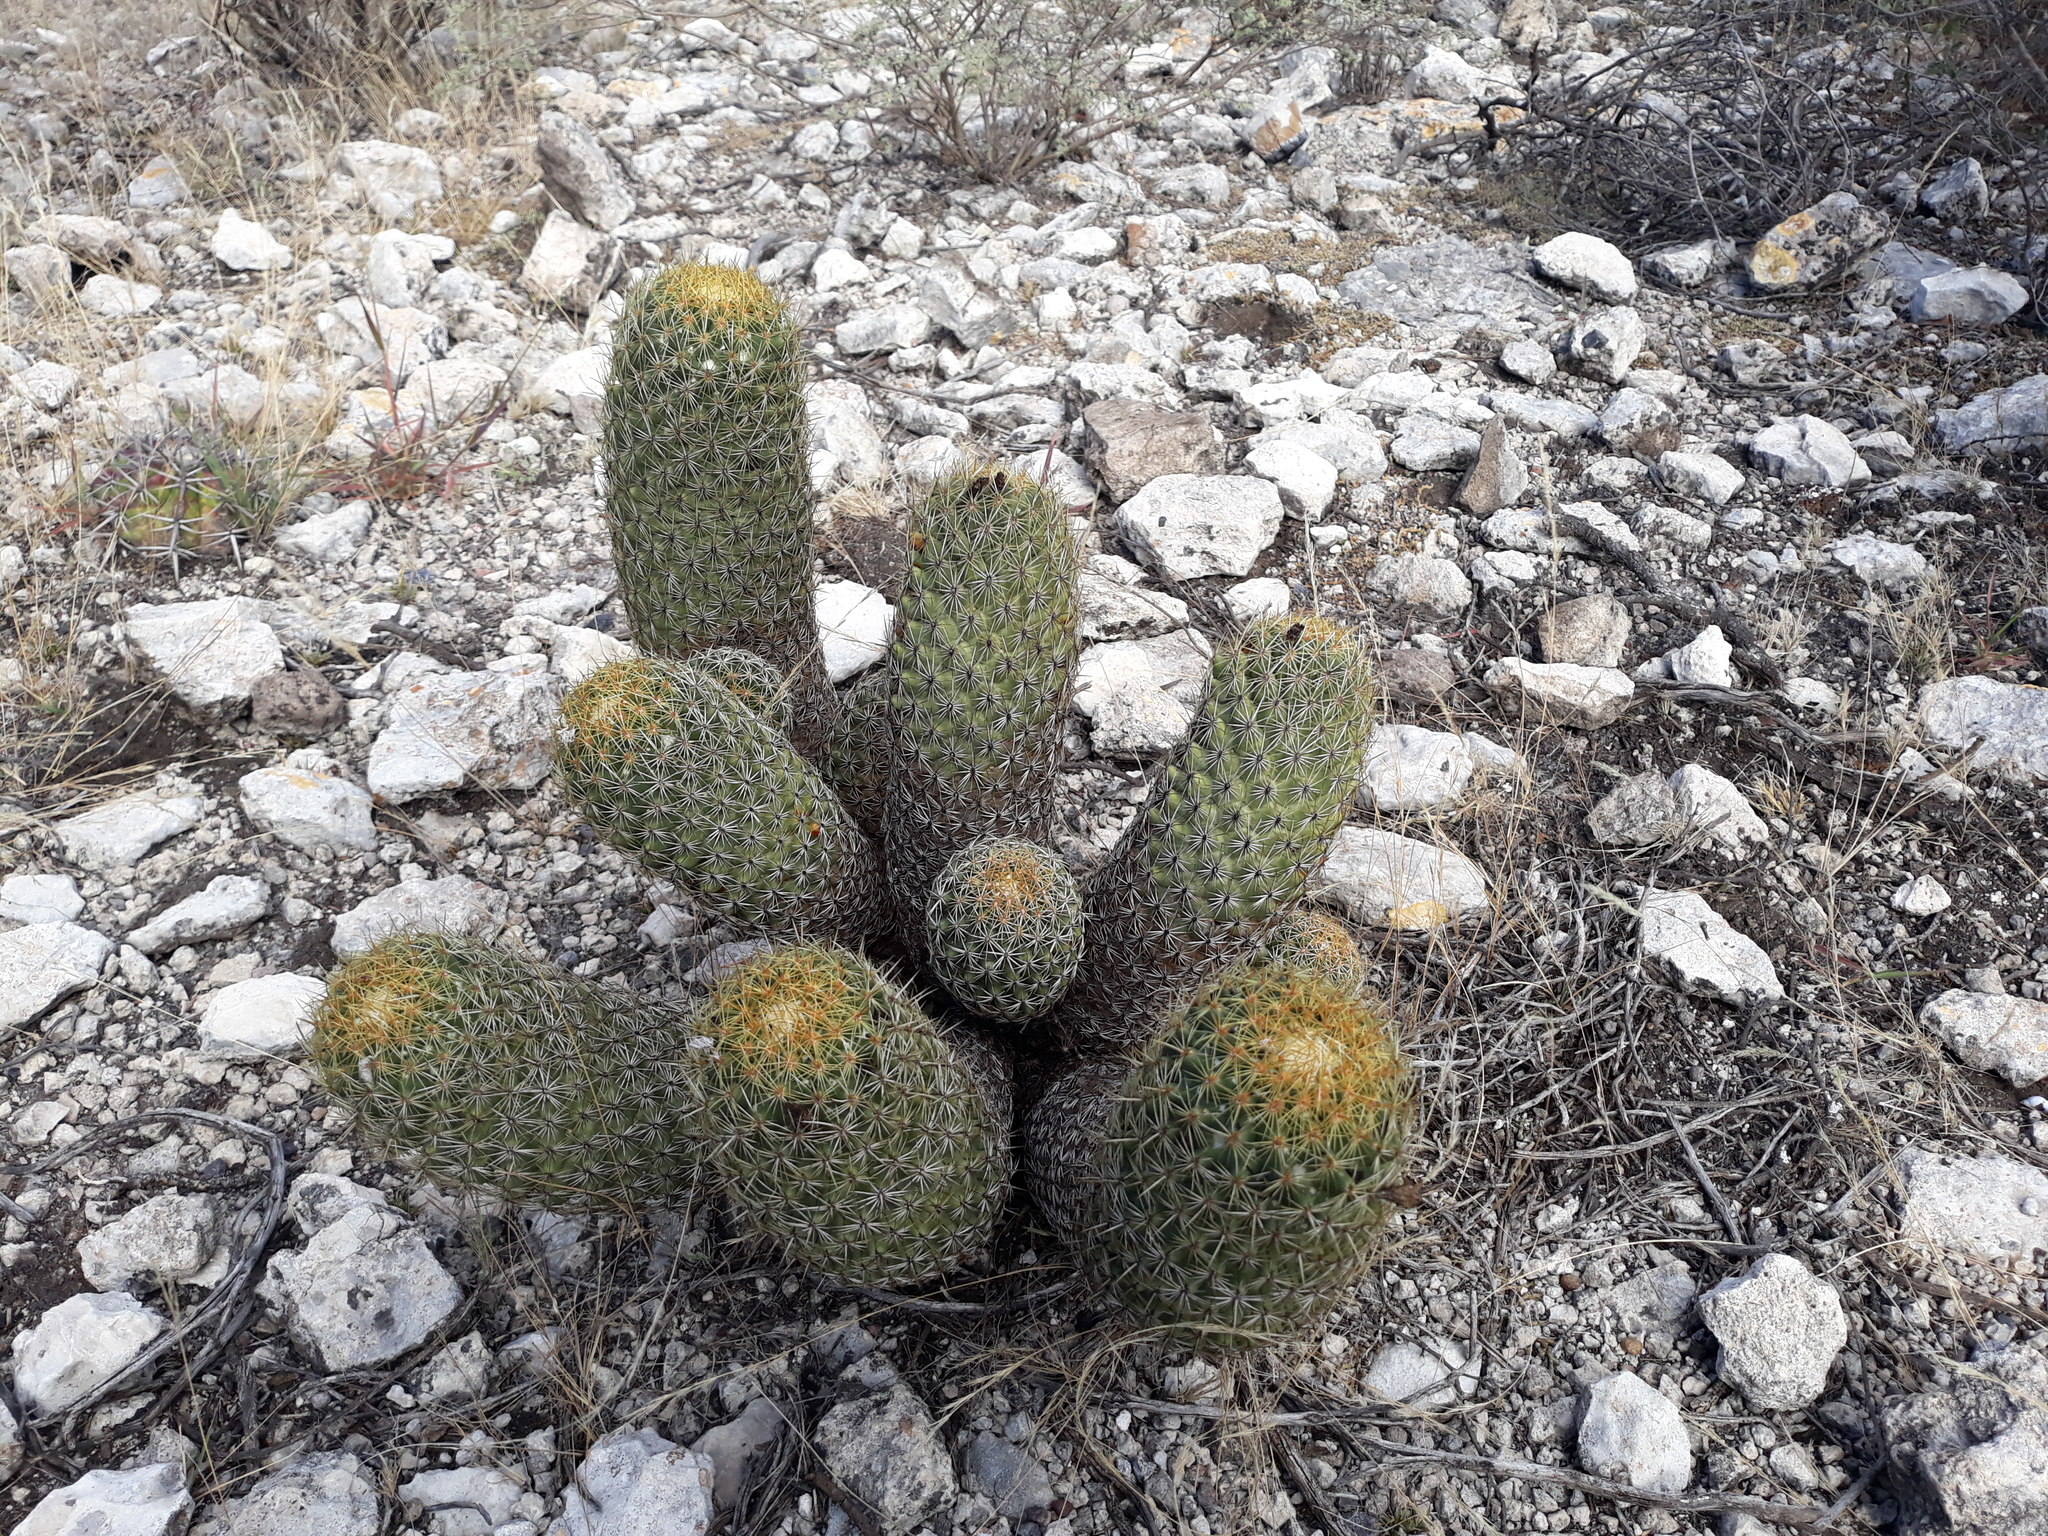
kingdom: Plantae
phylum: Tracheophyta
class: Magnoliopsida
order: Caryophyllales
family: Cactaceae
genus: Coryphantha
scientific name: Coryphantha erecta
